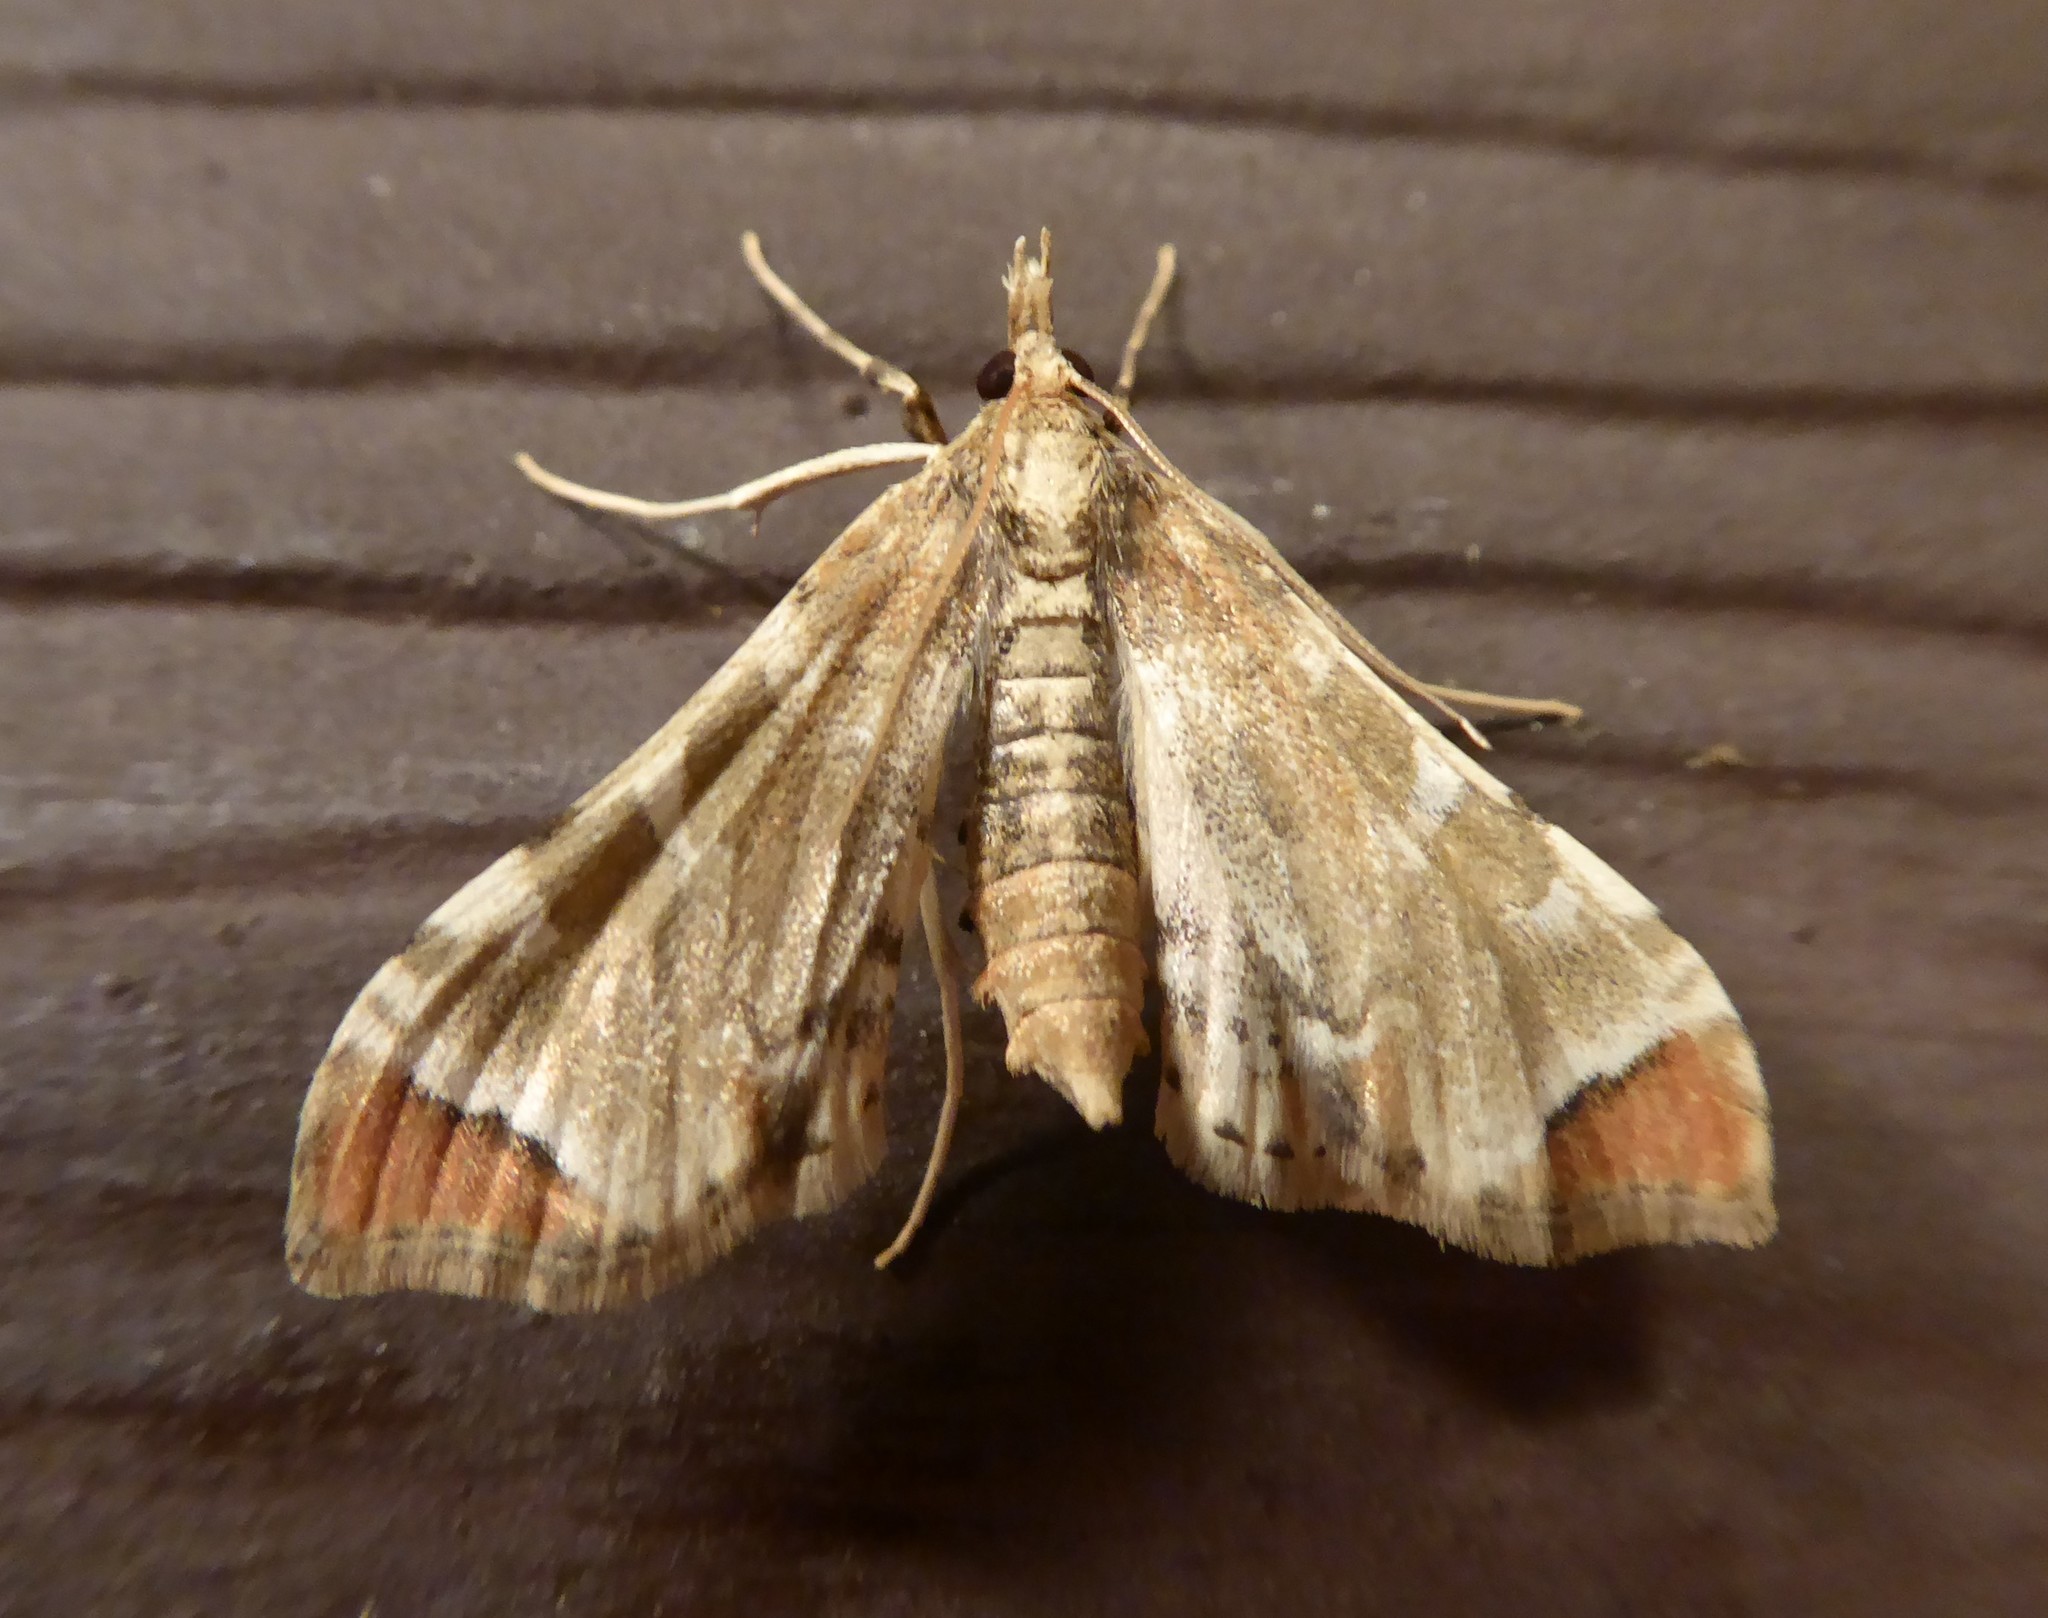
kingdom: Animalia
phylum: Arthropoda
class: Insecta
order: Lepidoptera
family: Crambidae
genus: Sceliodes
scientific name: Sceliodes cordalis
